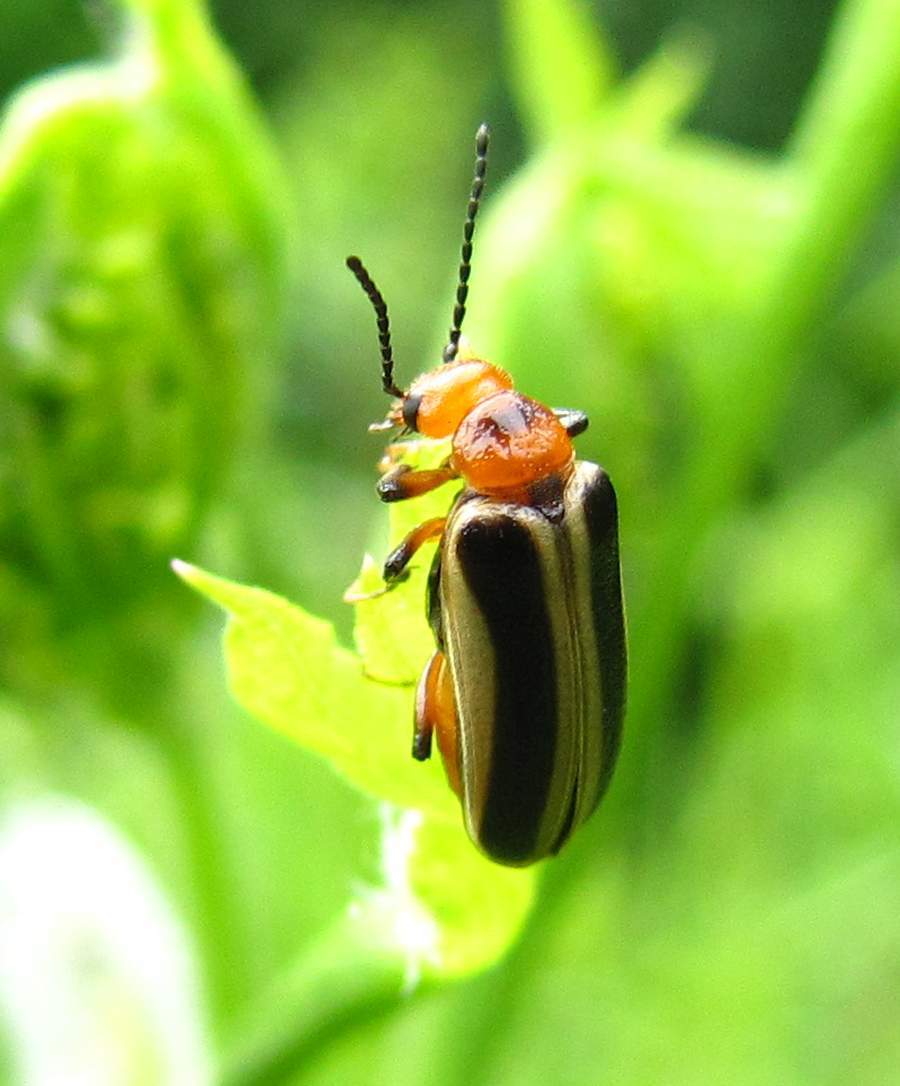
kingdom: Animalia
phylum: Arthropoda
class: Insecta
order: Coleoptera
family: Meloidae
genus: Zonitis
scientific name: Zonitis bilineata
